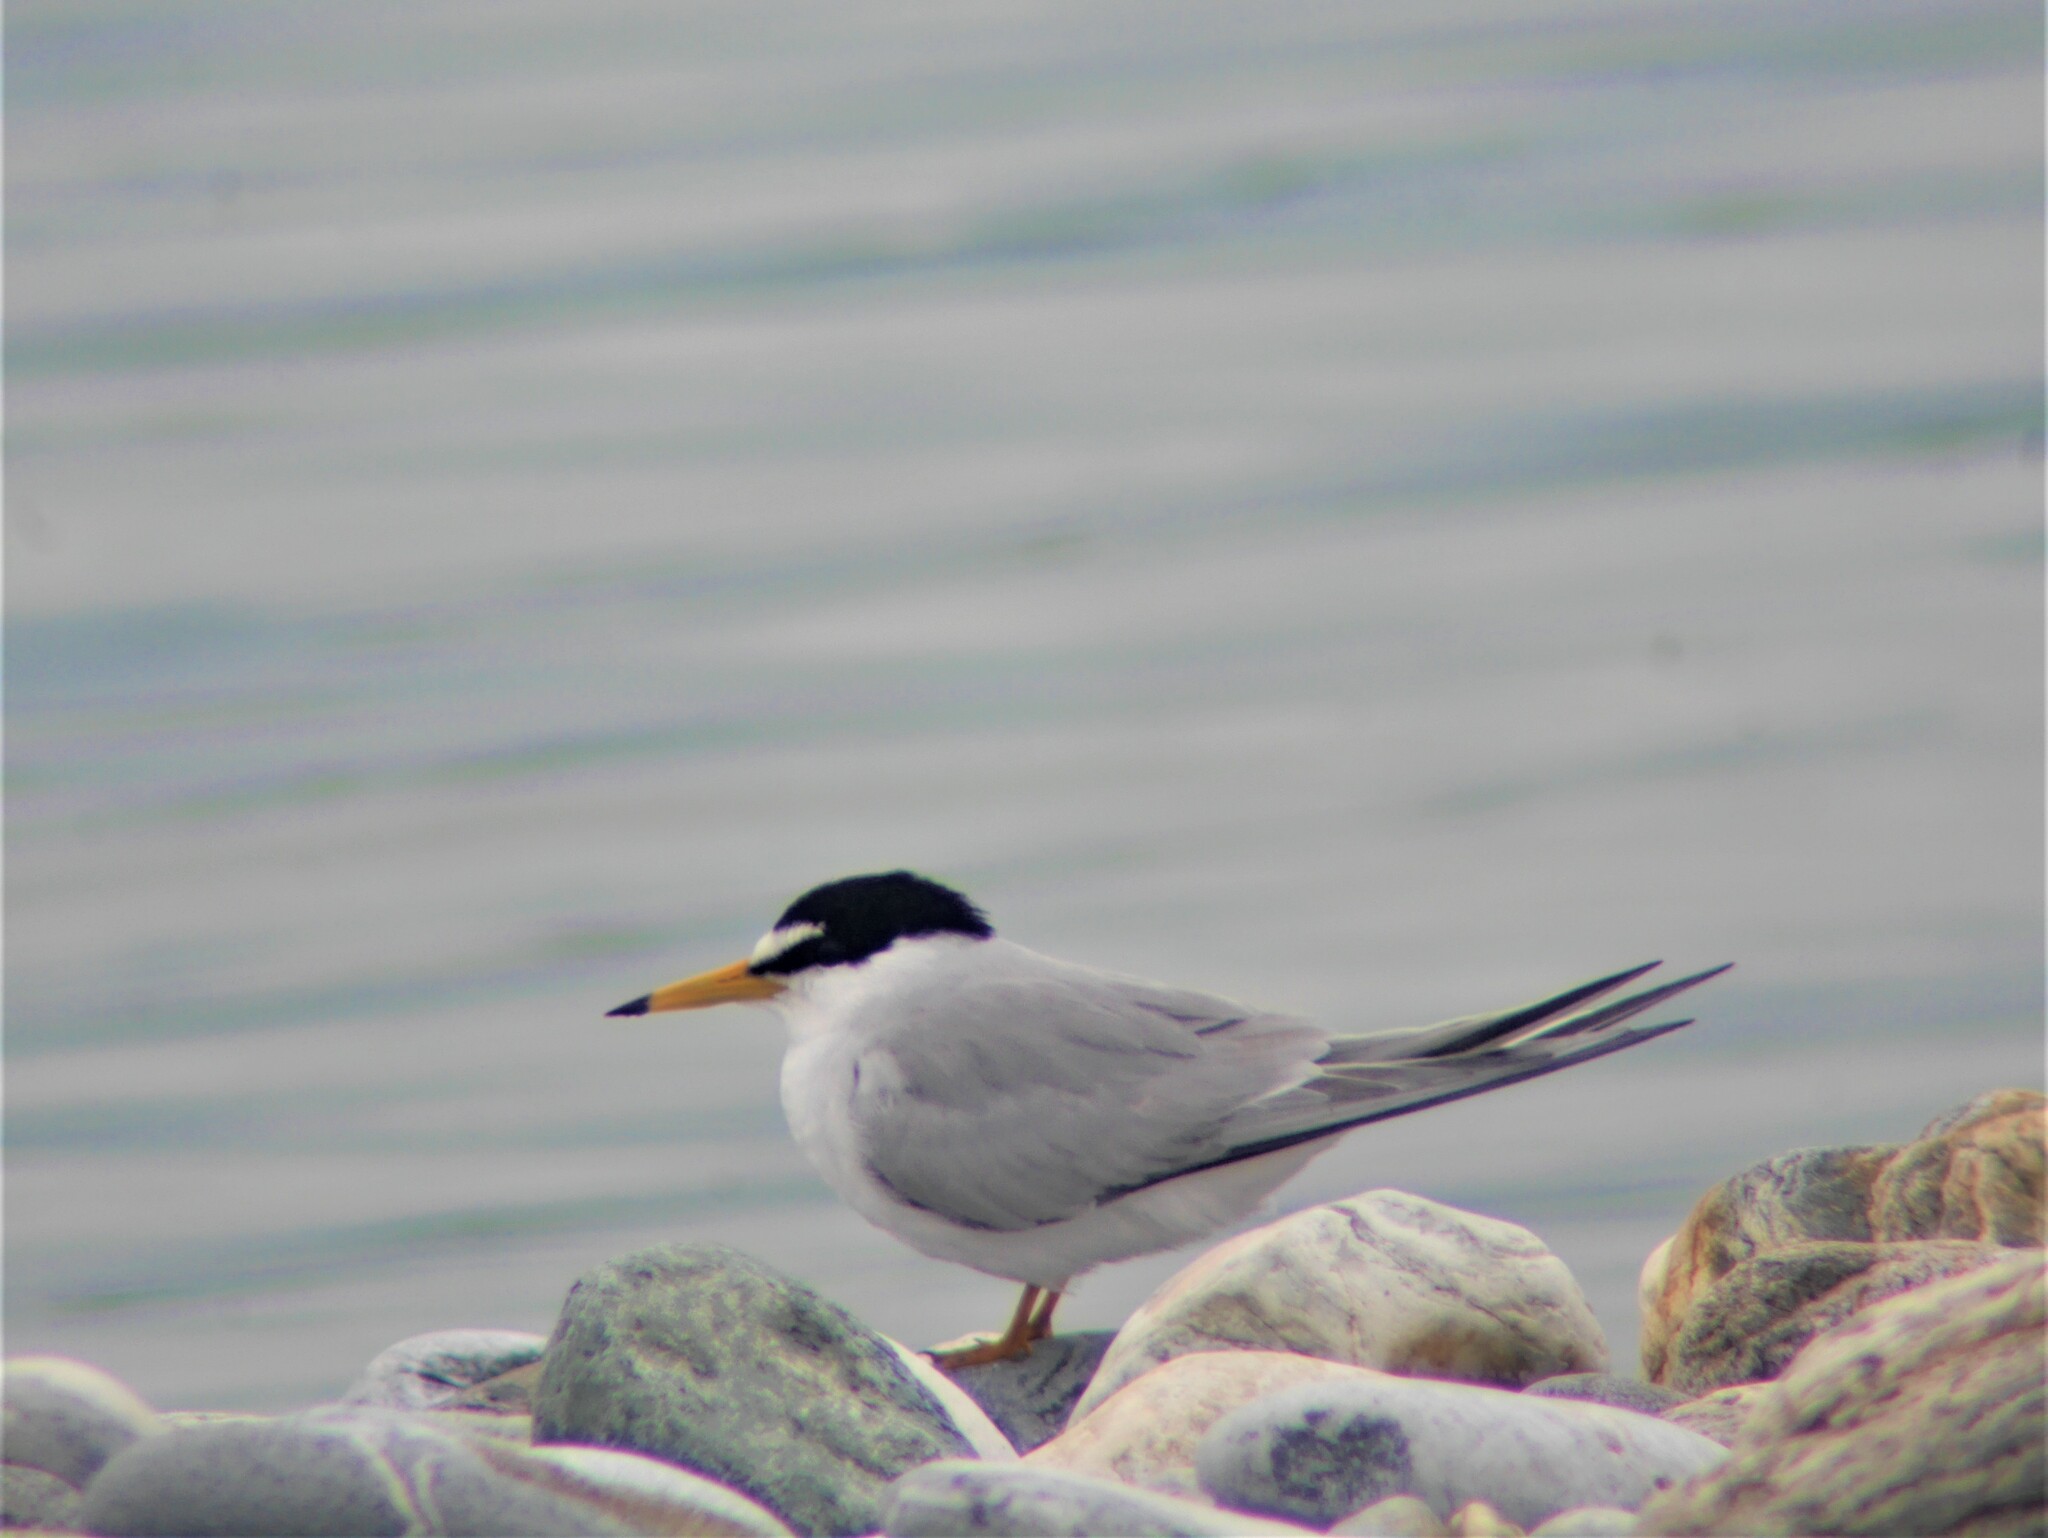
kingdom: Animalia
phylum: Chordata
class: Aves
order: Charadriiformes
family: Laridae
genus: Sternula
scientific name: Sternula albifrons
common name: Little tern
